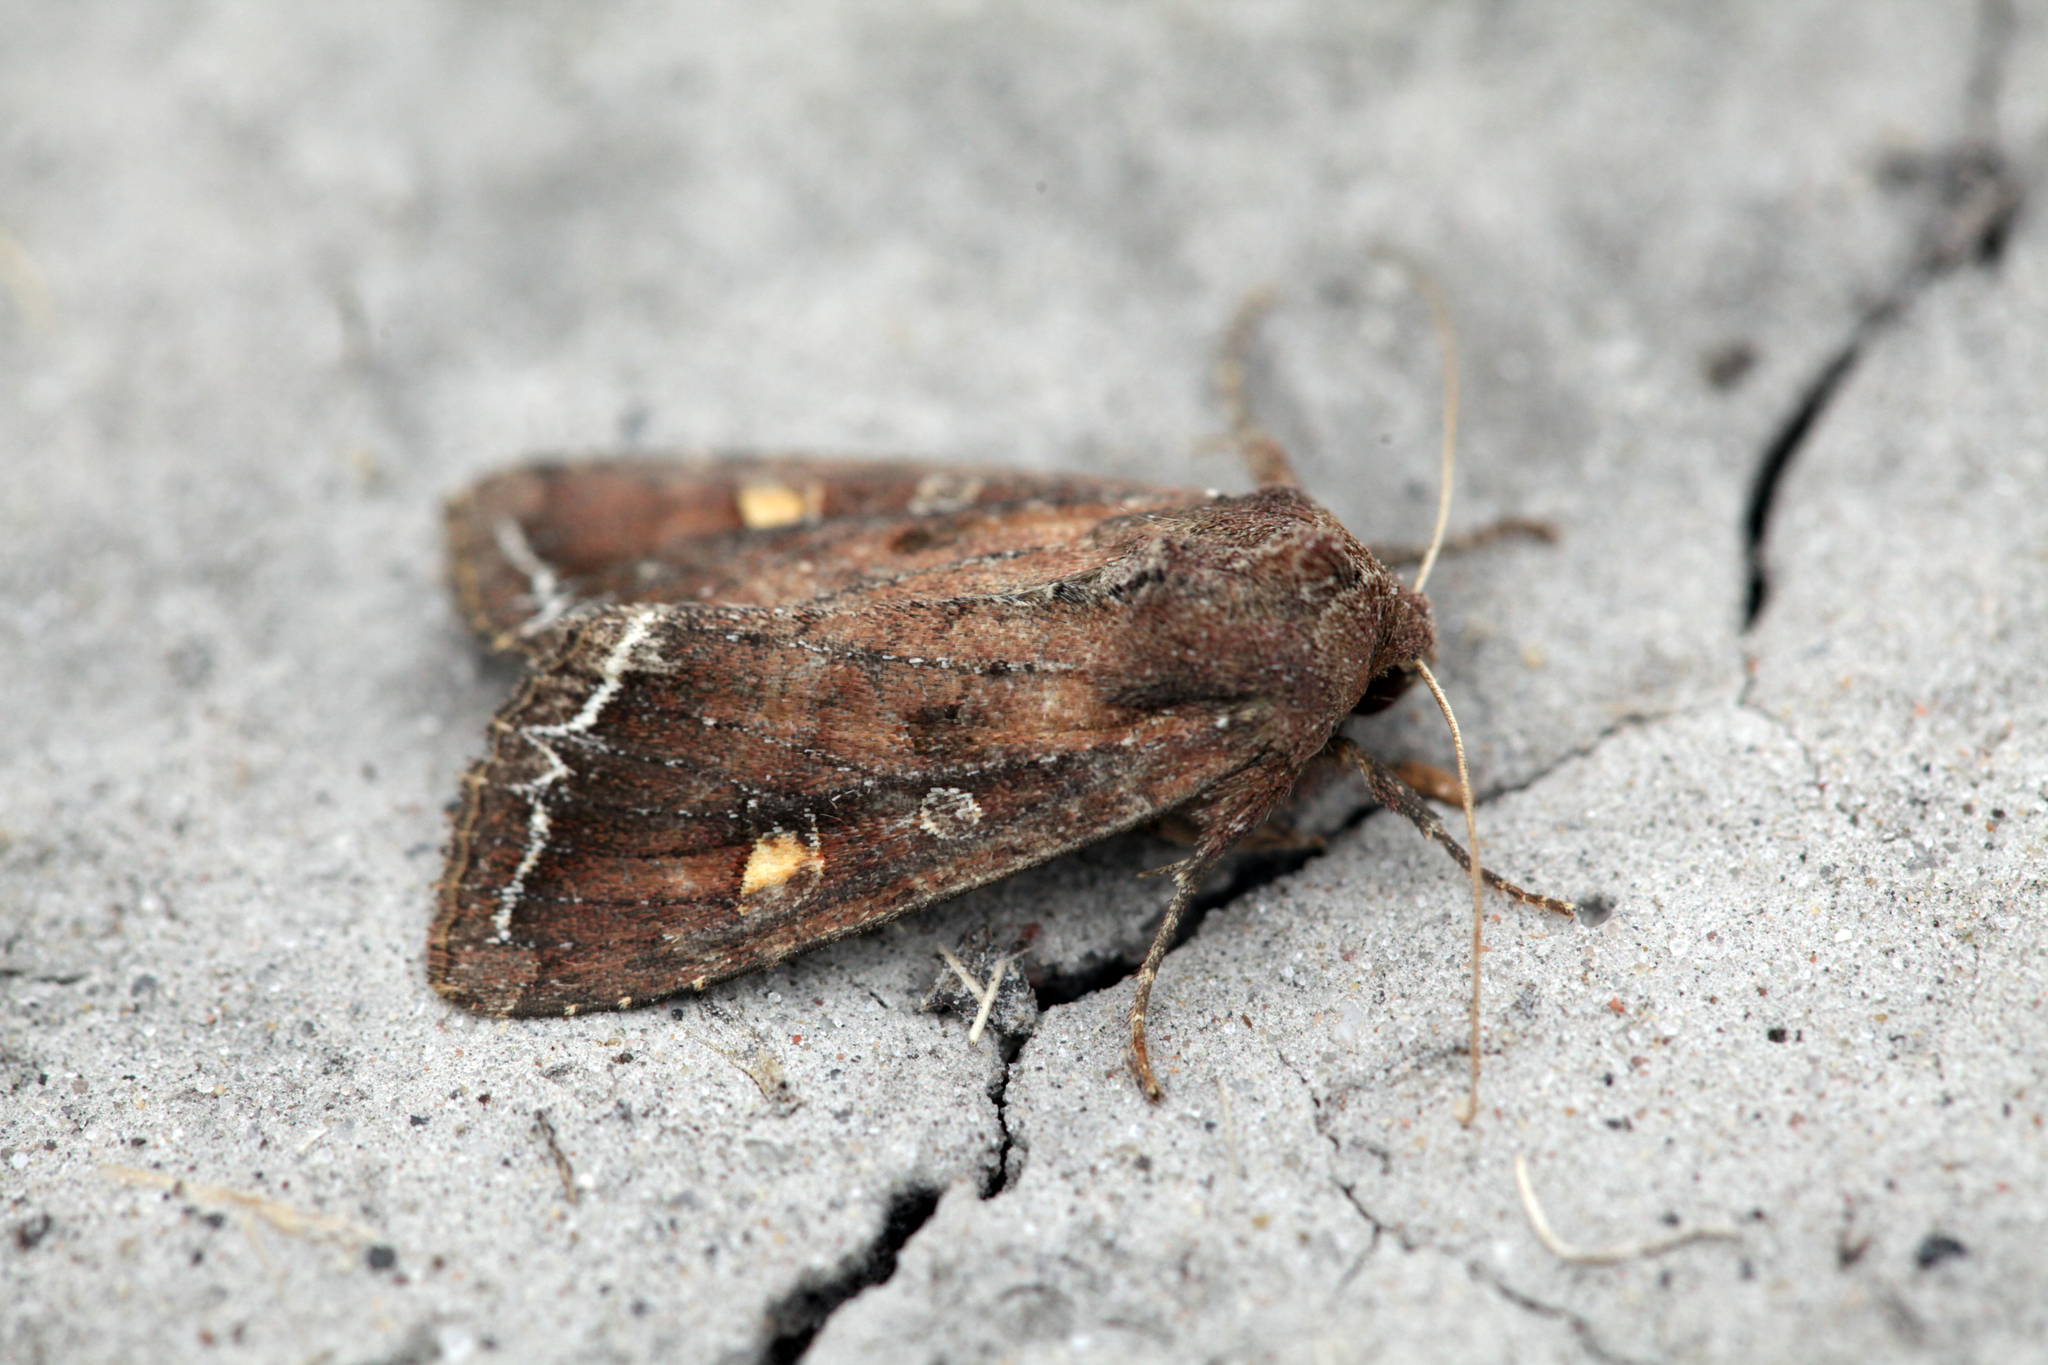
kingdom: Animalia
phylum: Arthropoda
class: Insecta
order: Lepidoptera
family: Noctuidae
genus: Lacanobia
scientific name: Lacanobia oleracea
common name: Bright-line brown-eye
